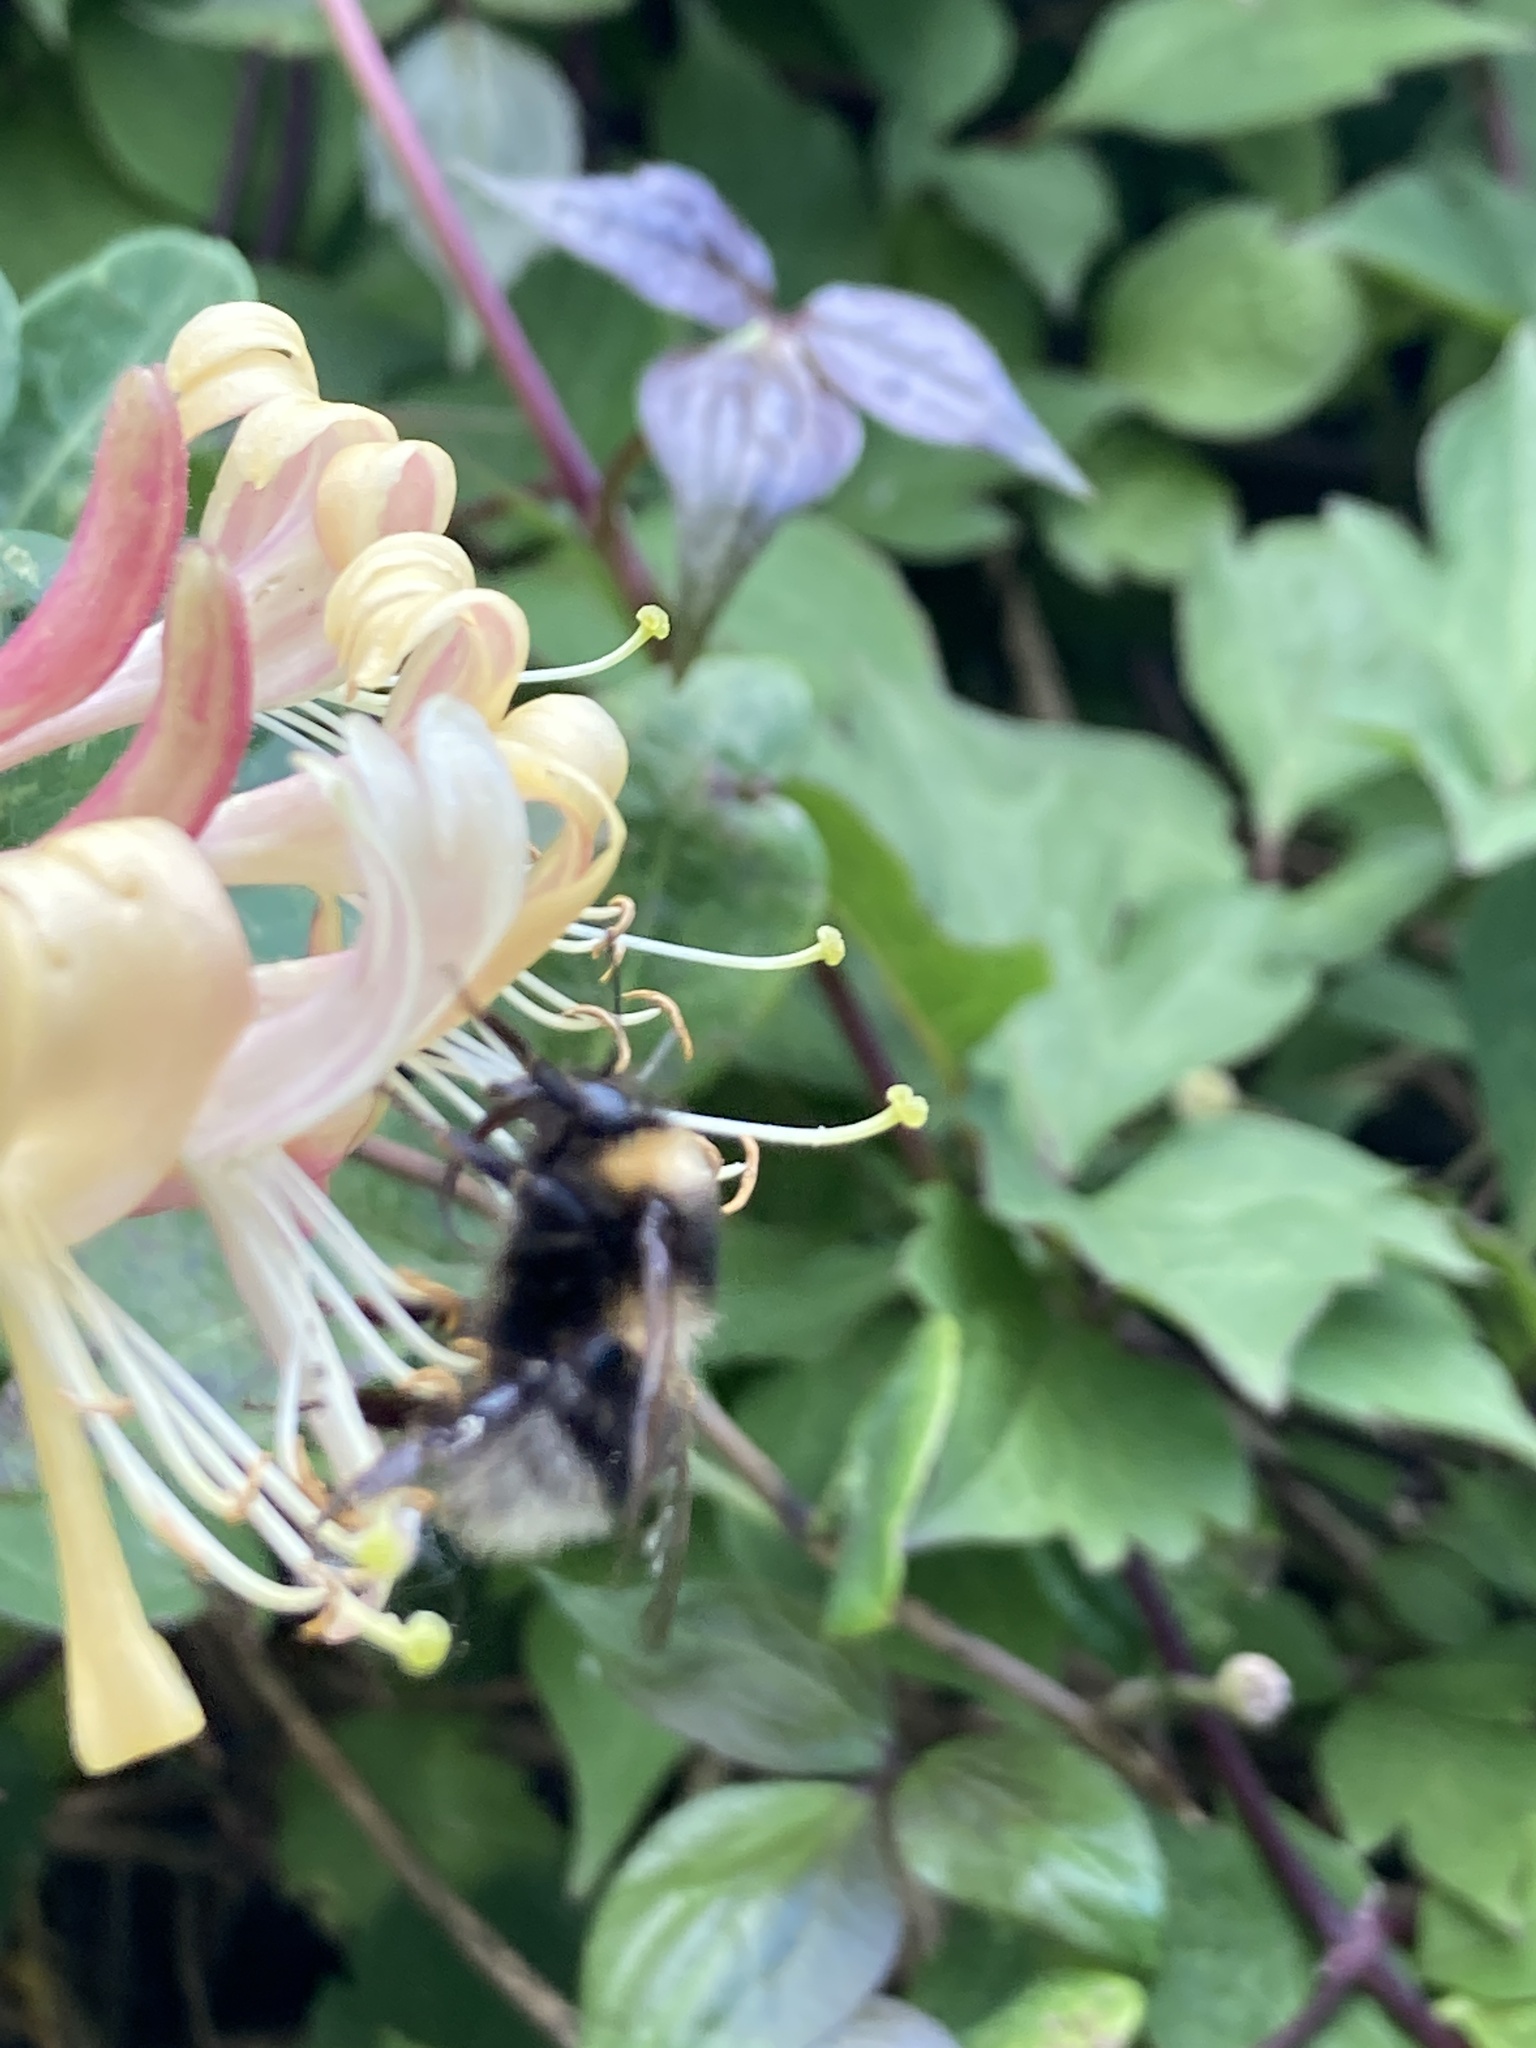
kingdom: Animalia
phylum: Arthropoda
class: Insecta
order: Hymenoptera
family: Apidae
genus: Bombus
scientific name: Bombus hortorum
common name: Garden bumblebee
